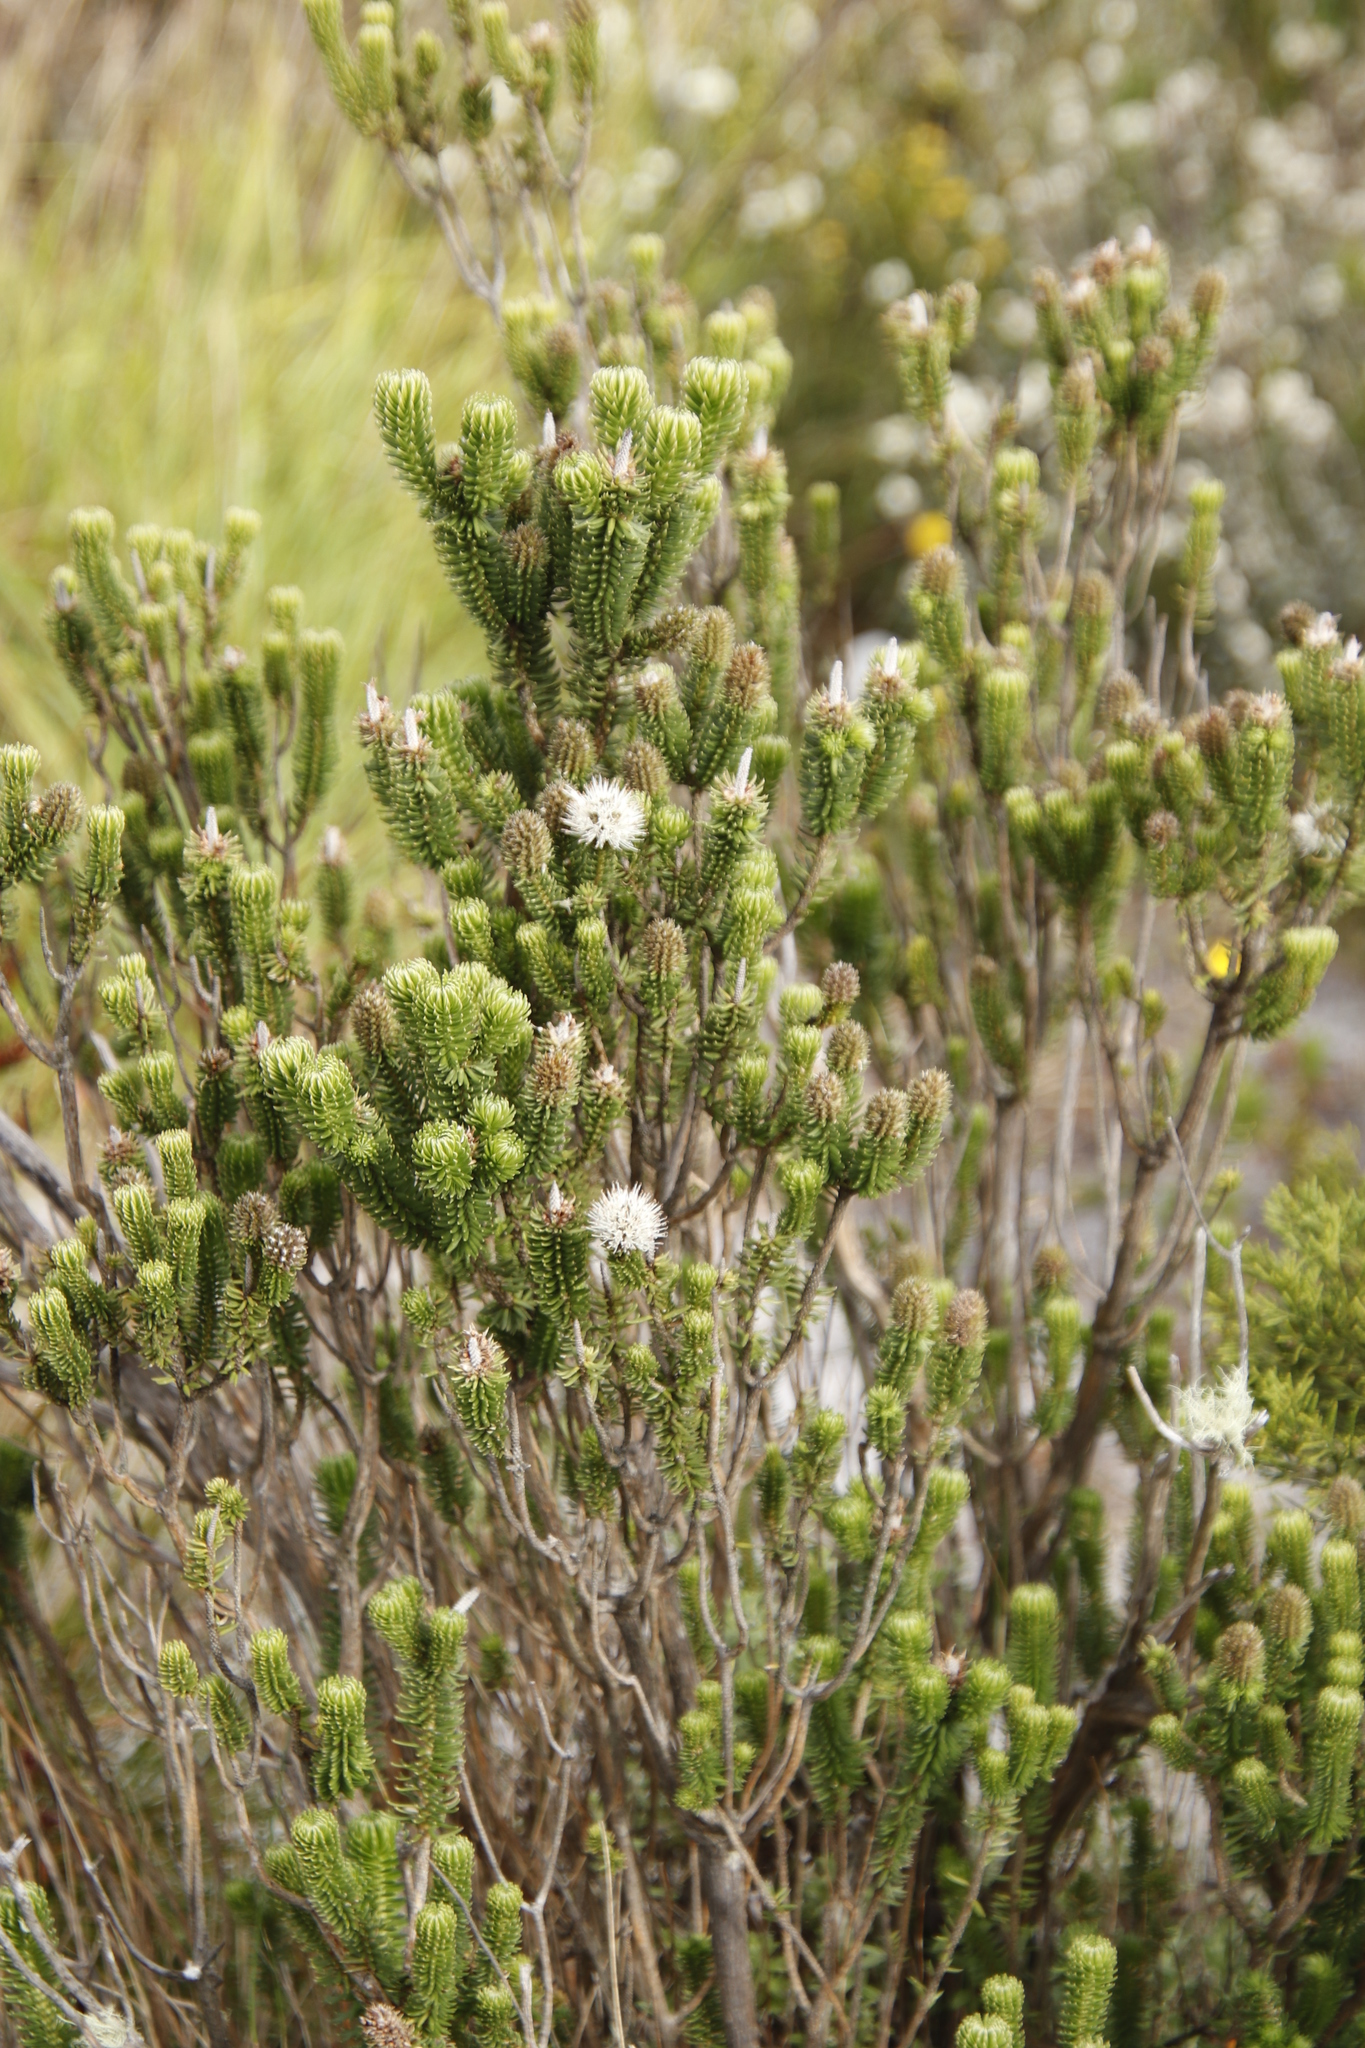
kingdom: Plantae
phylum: Tracheophyta
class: Magnoliopsida
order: Lamiales
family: Stilbaceae
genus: Stilbe
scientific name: Stilbe vestita
